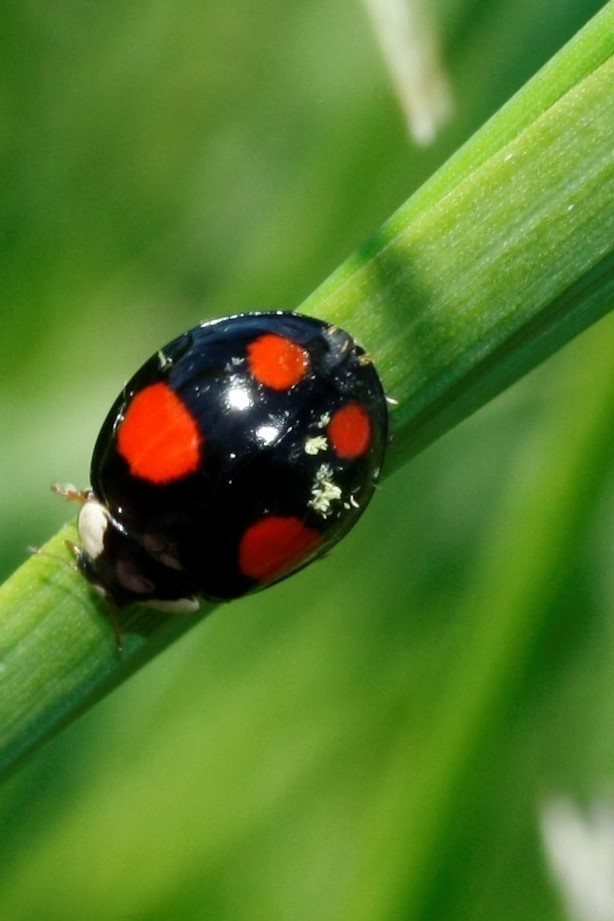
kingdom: Fungi
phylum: Ascomycota
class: Laboulbeniomycetes
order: Laboulbeniales
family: Laboulbeniaceae
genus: Hesperomyces
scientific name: Hesperomyces harmoniae
